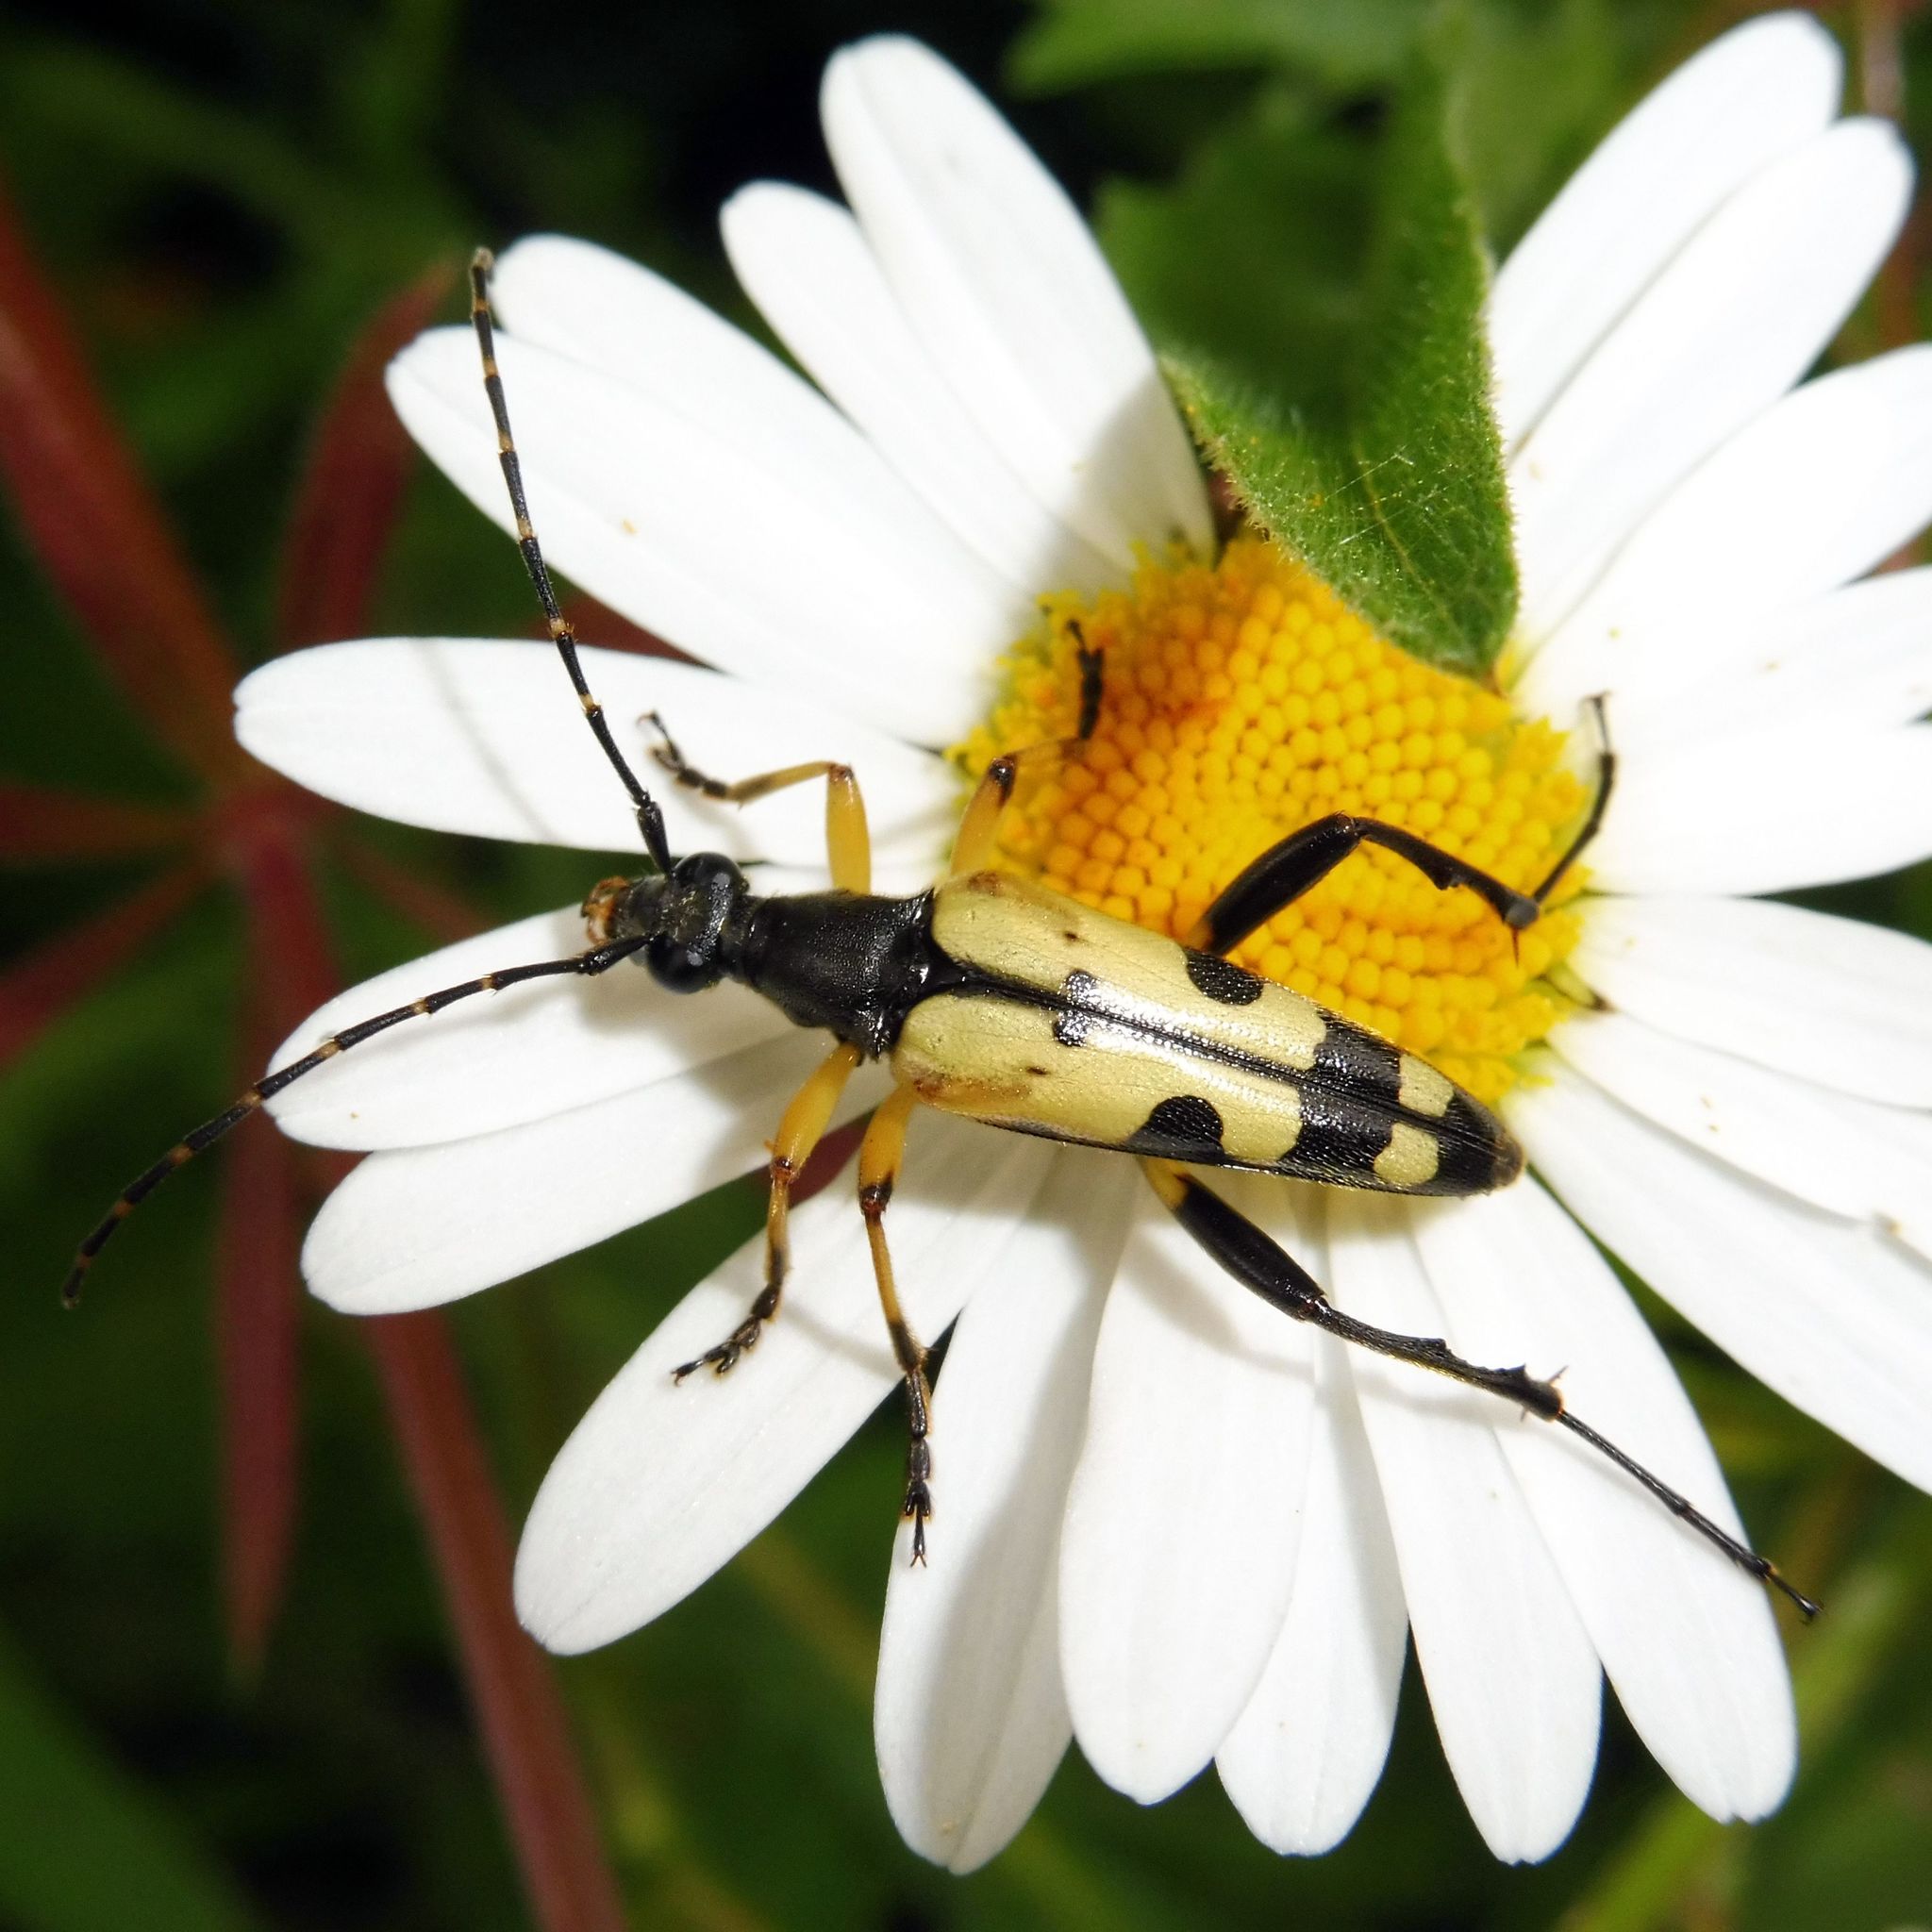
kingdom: Animalia
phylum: Arthropoda
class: Insecta
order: Coleoptera
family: Cerambycidae
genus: Rutpela
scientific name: Rutpela maculata
